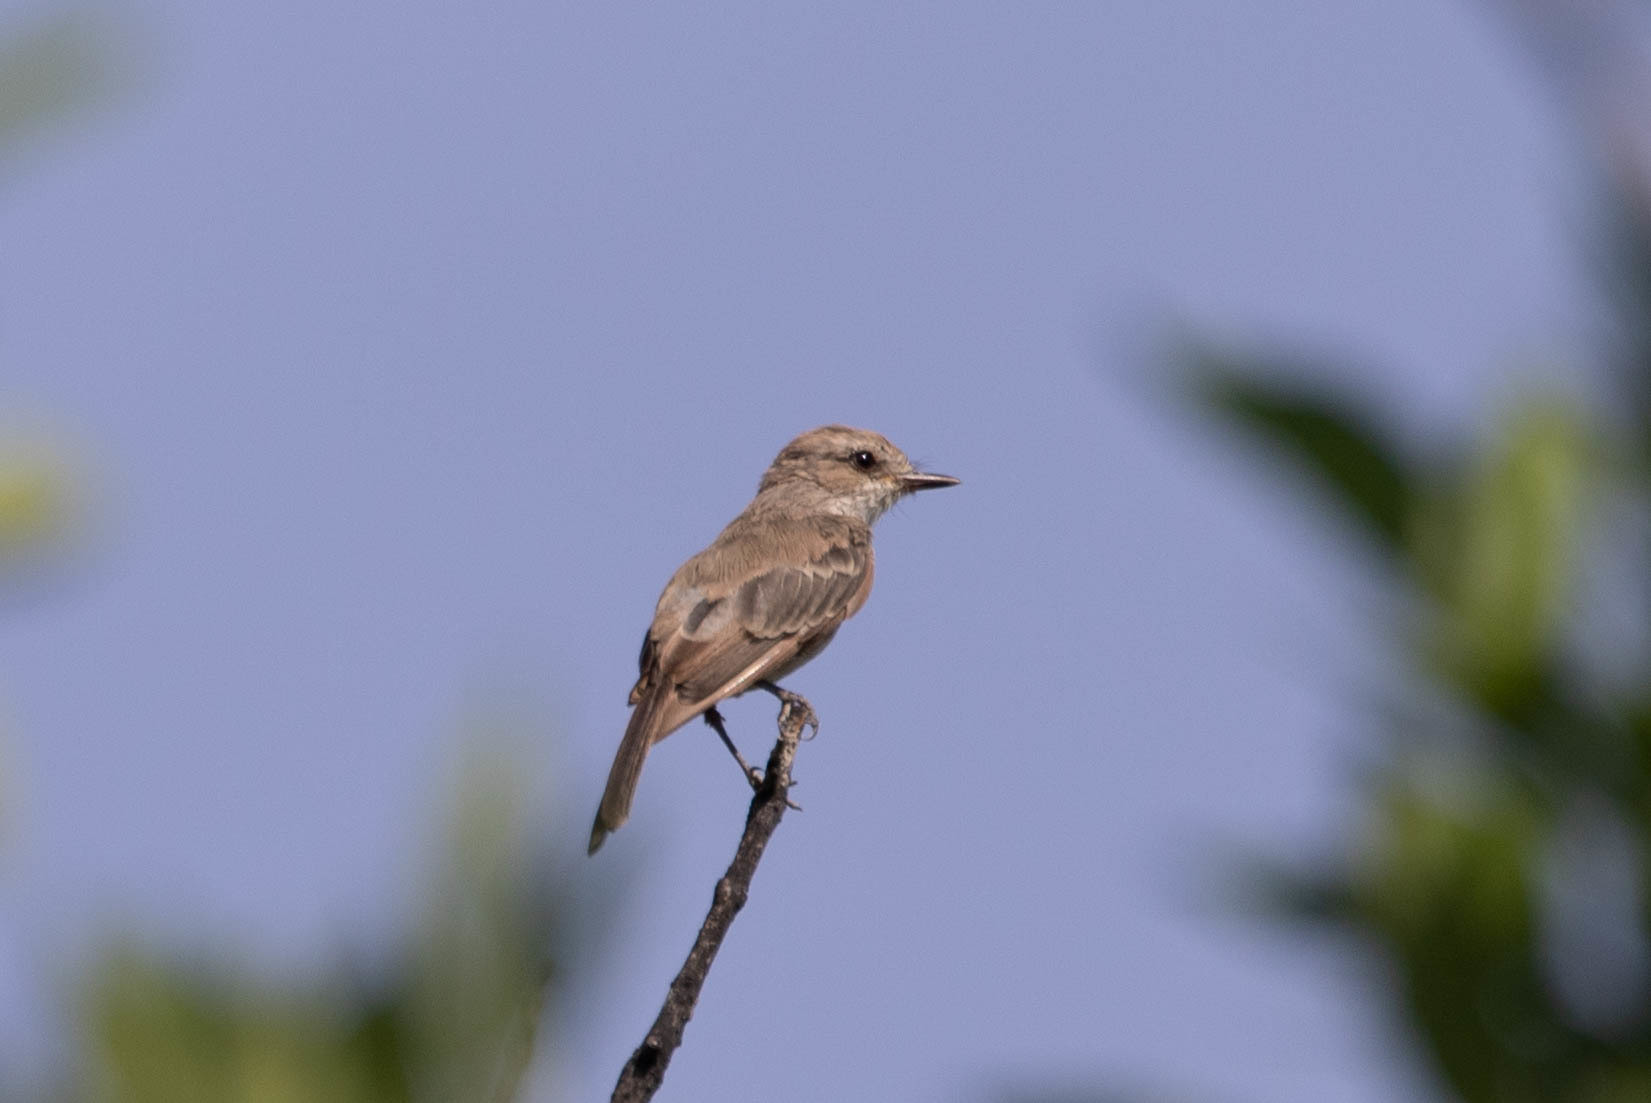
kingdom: Animalia
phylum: Chordata
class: Aves
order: Passeriformes
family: Tyrannidae
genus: Pyrocephalus
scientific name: Pyrocephalus rubinus
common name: Vermilion flycatcher
